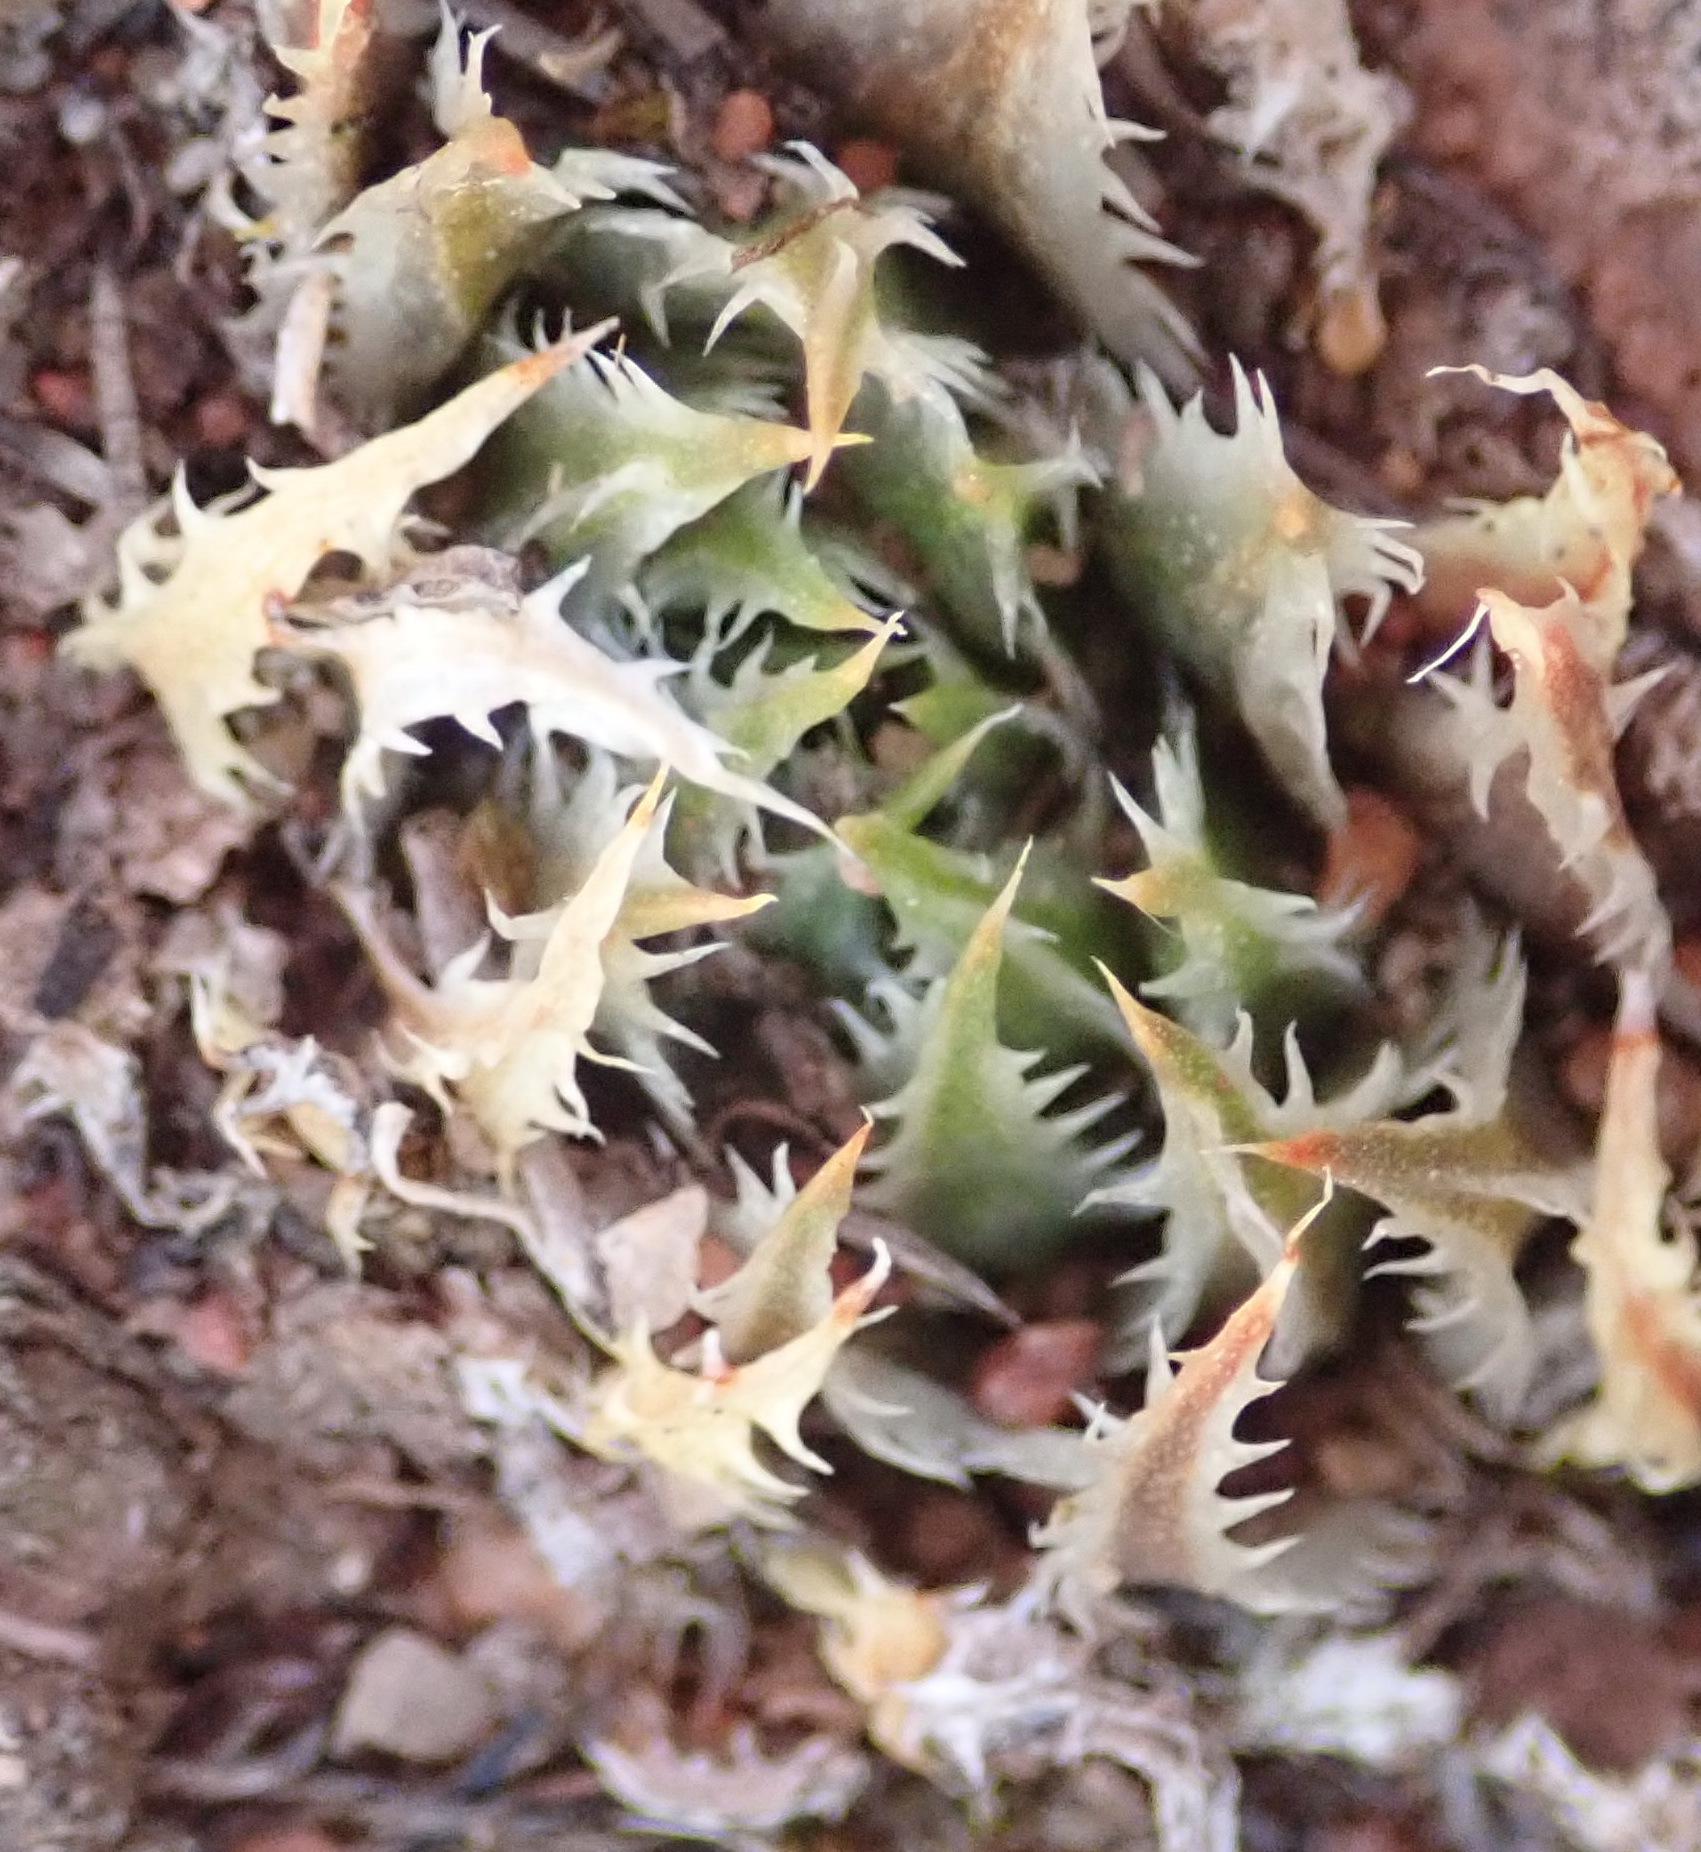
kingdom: Plantae
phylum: Tracheophyta
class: Liliopsida
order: Asparagales
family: Asphodelaceae
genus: Haworthia
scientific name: Haworthia outeniquensis
